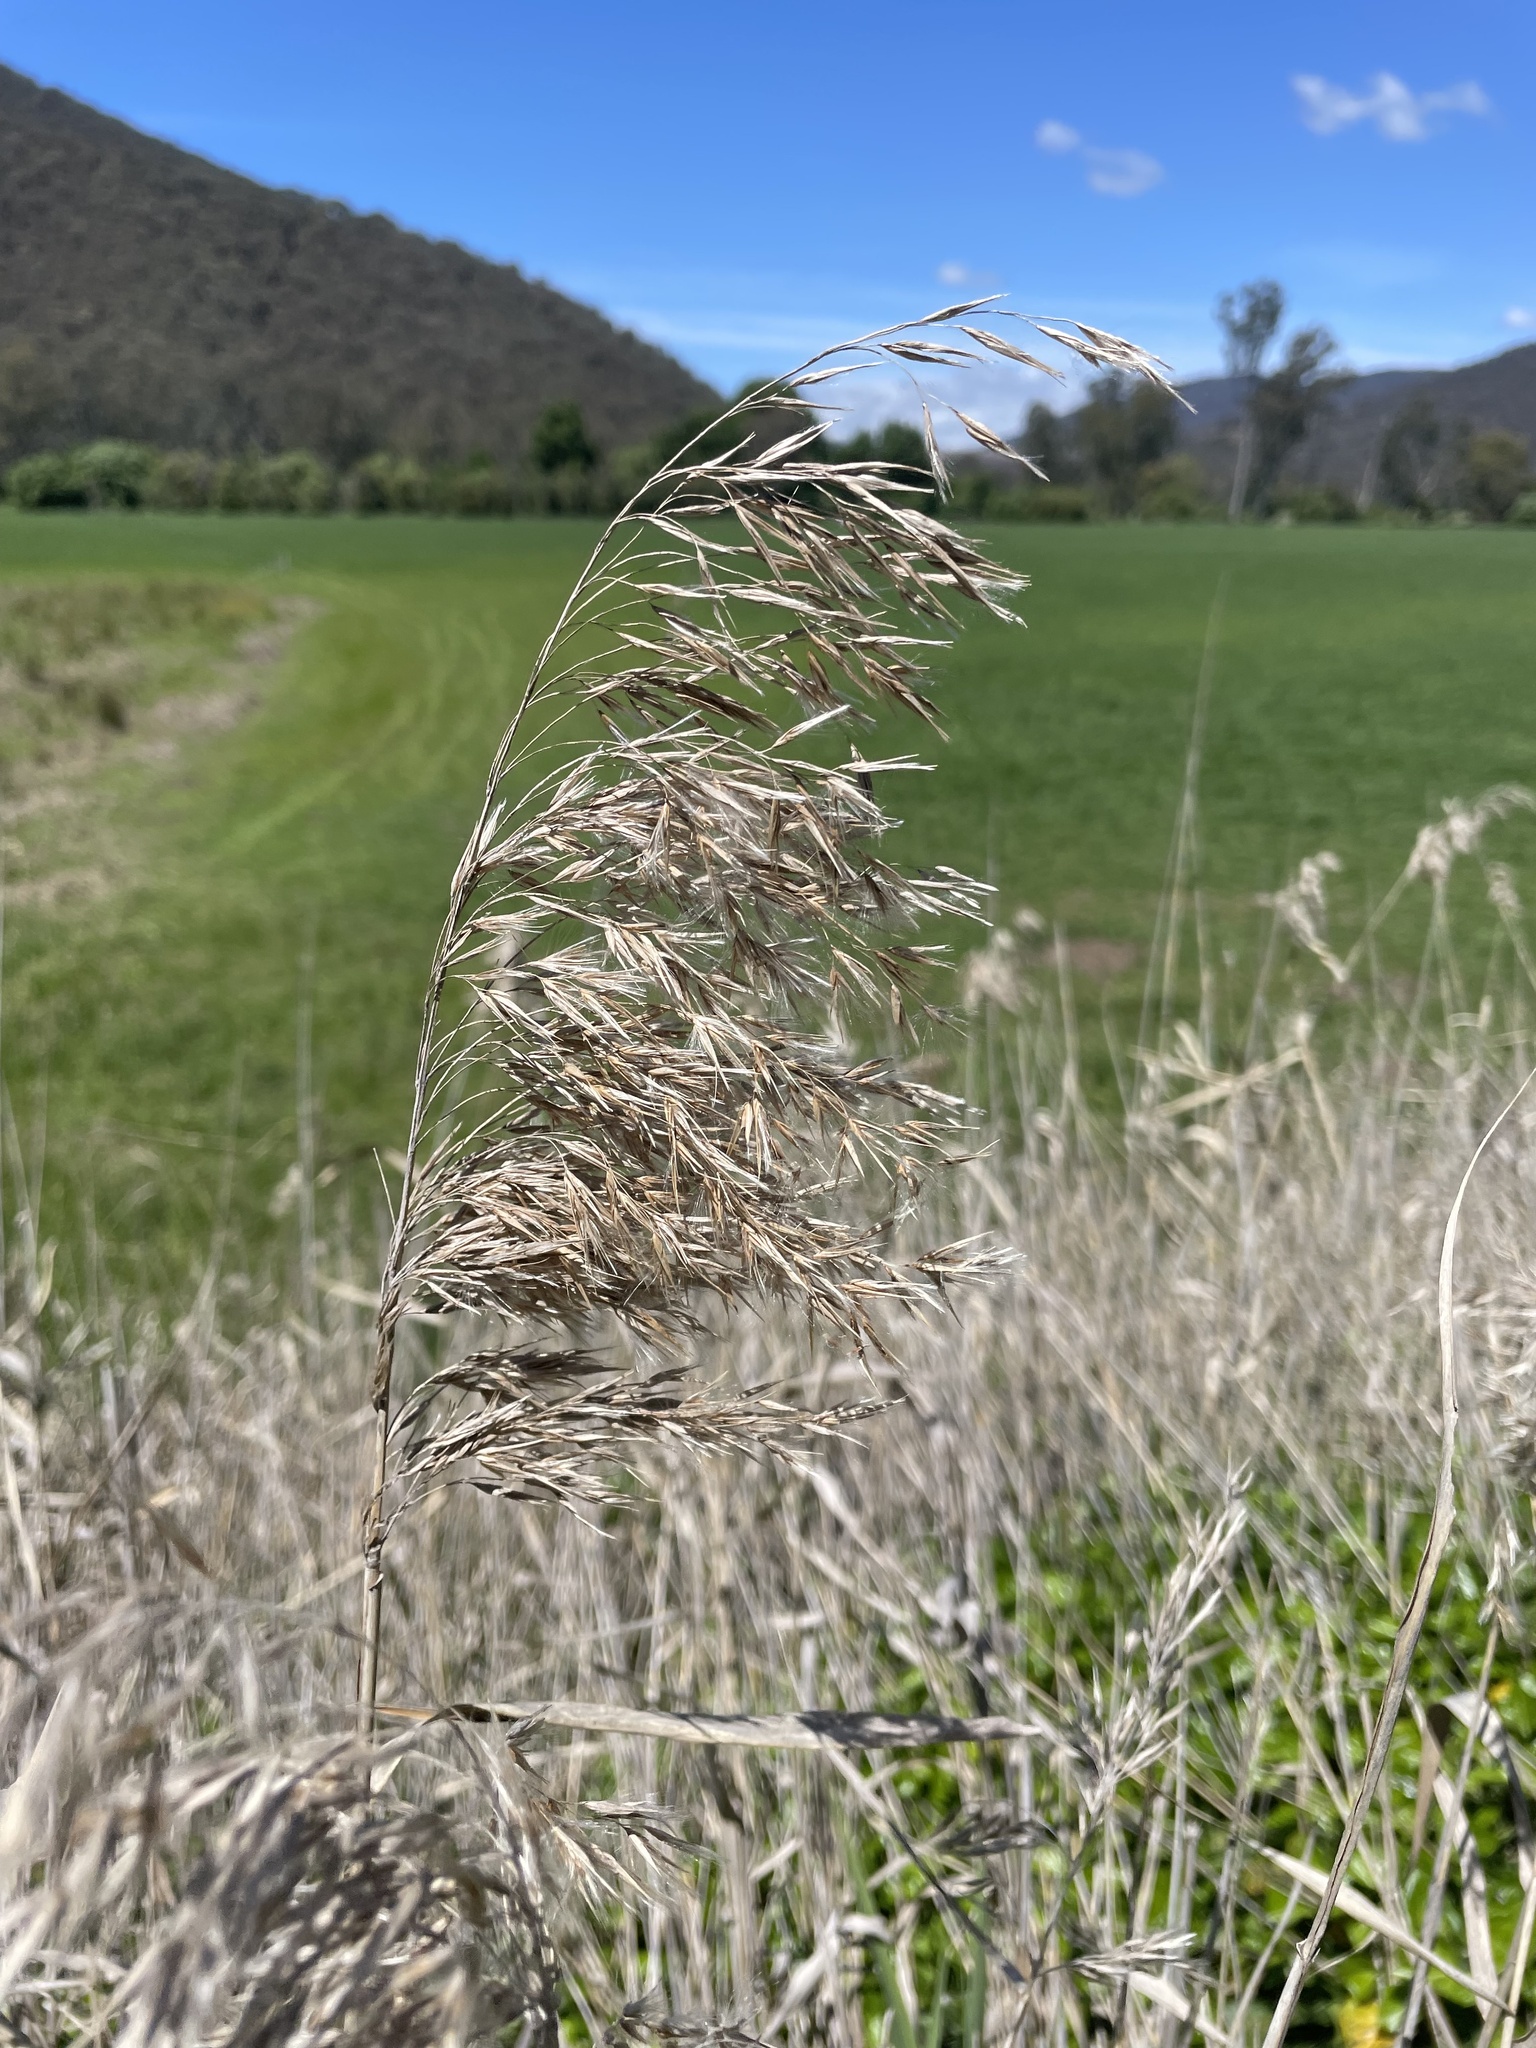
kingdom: Plantae
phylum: Tracheophyta
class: Liliopsida
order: Poales
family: Poaceae
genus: Phragmites
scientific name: Phragmites australis
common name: Common reed
